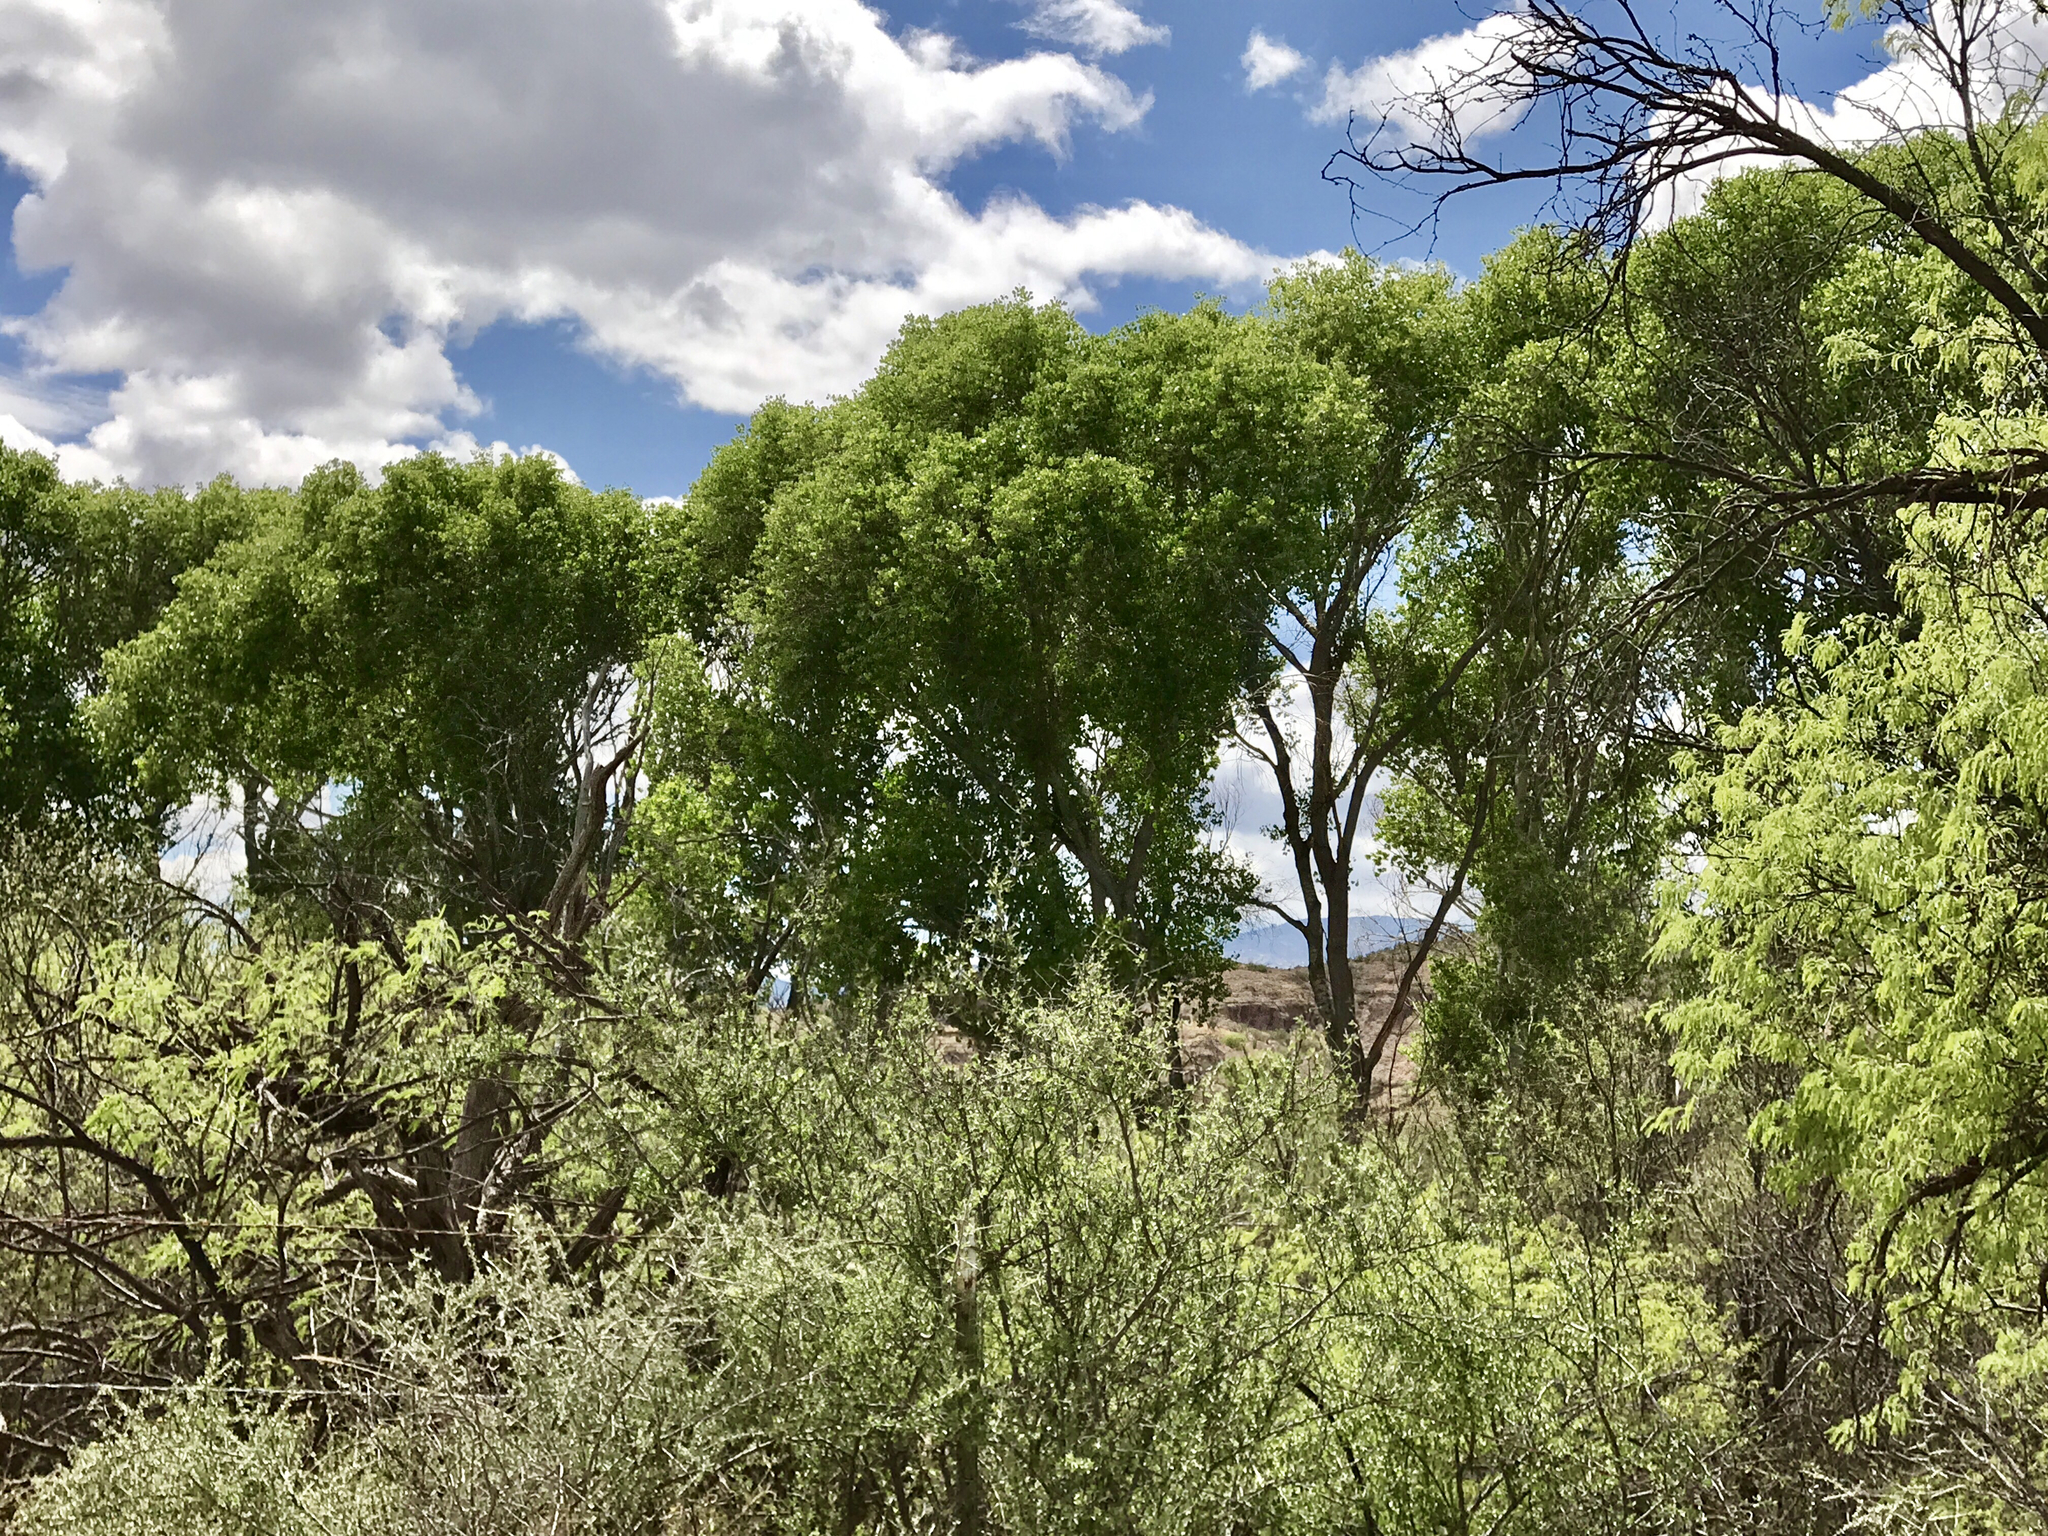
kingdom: Plantae
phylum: Tracheophyta
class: Magnoliopsida
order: Malpighiales
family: Salicaceae
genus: Populus
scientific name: Populus fremontii
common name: Fremont's cottonwood
